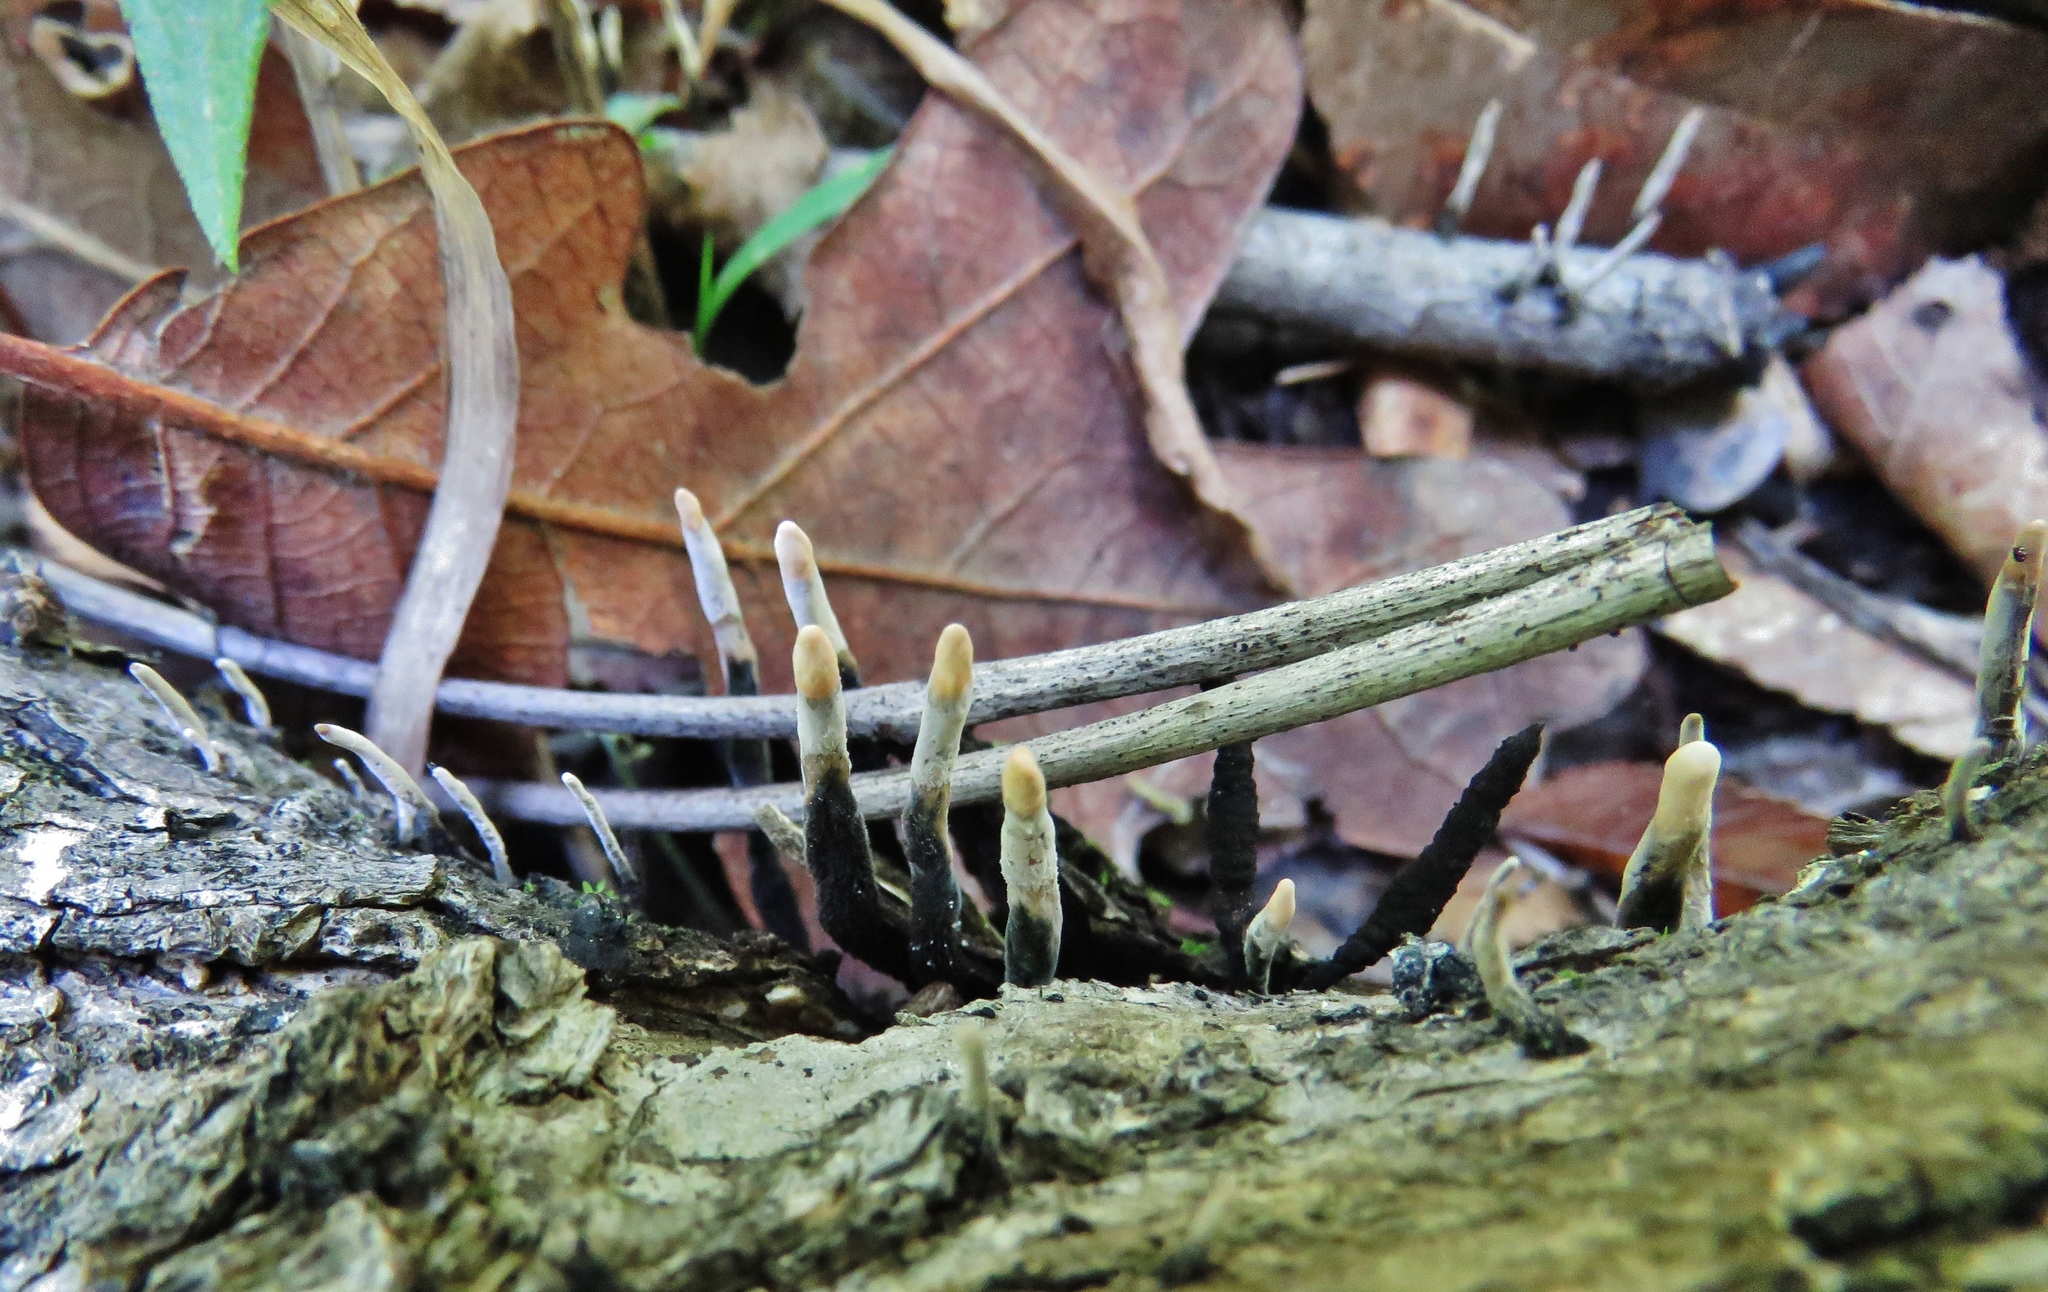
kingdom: Fungi
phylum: Ascomycota
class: Sordariomycetes
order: Xylariales
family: Xylariaceae
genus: Xylaria
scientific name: Xylaria hypoxylon
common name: Candle-snuff fungus
